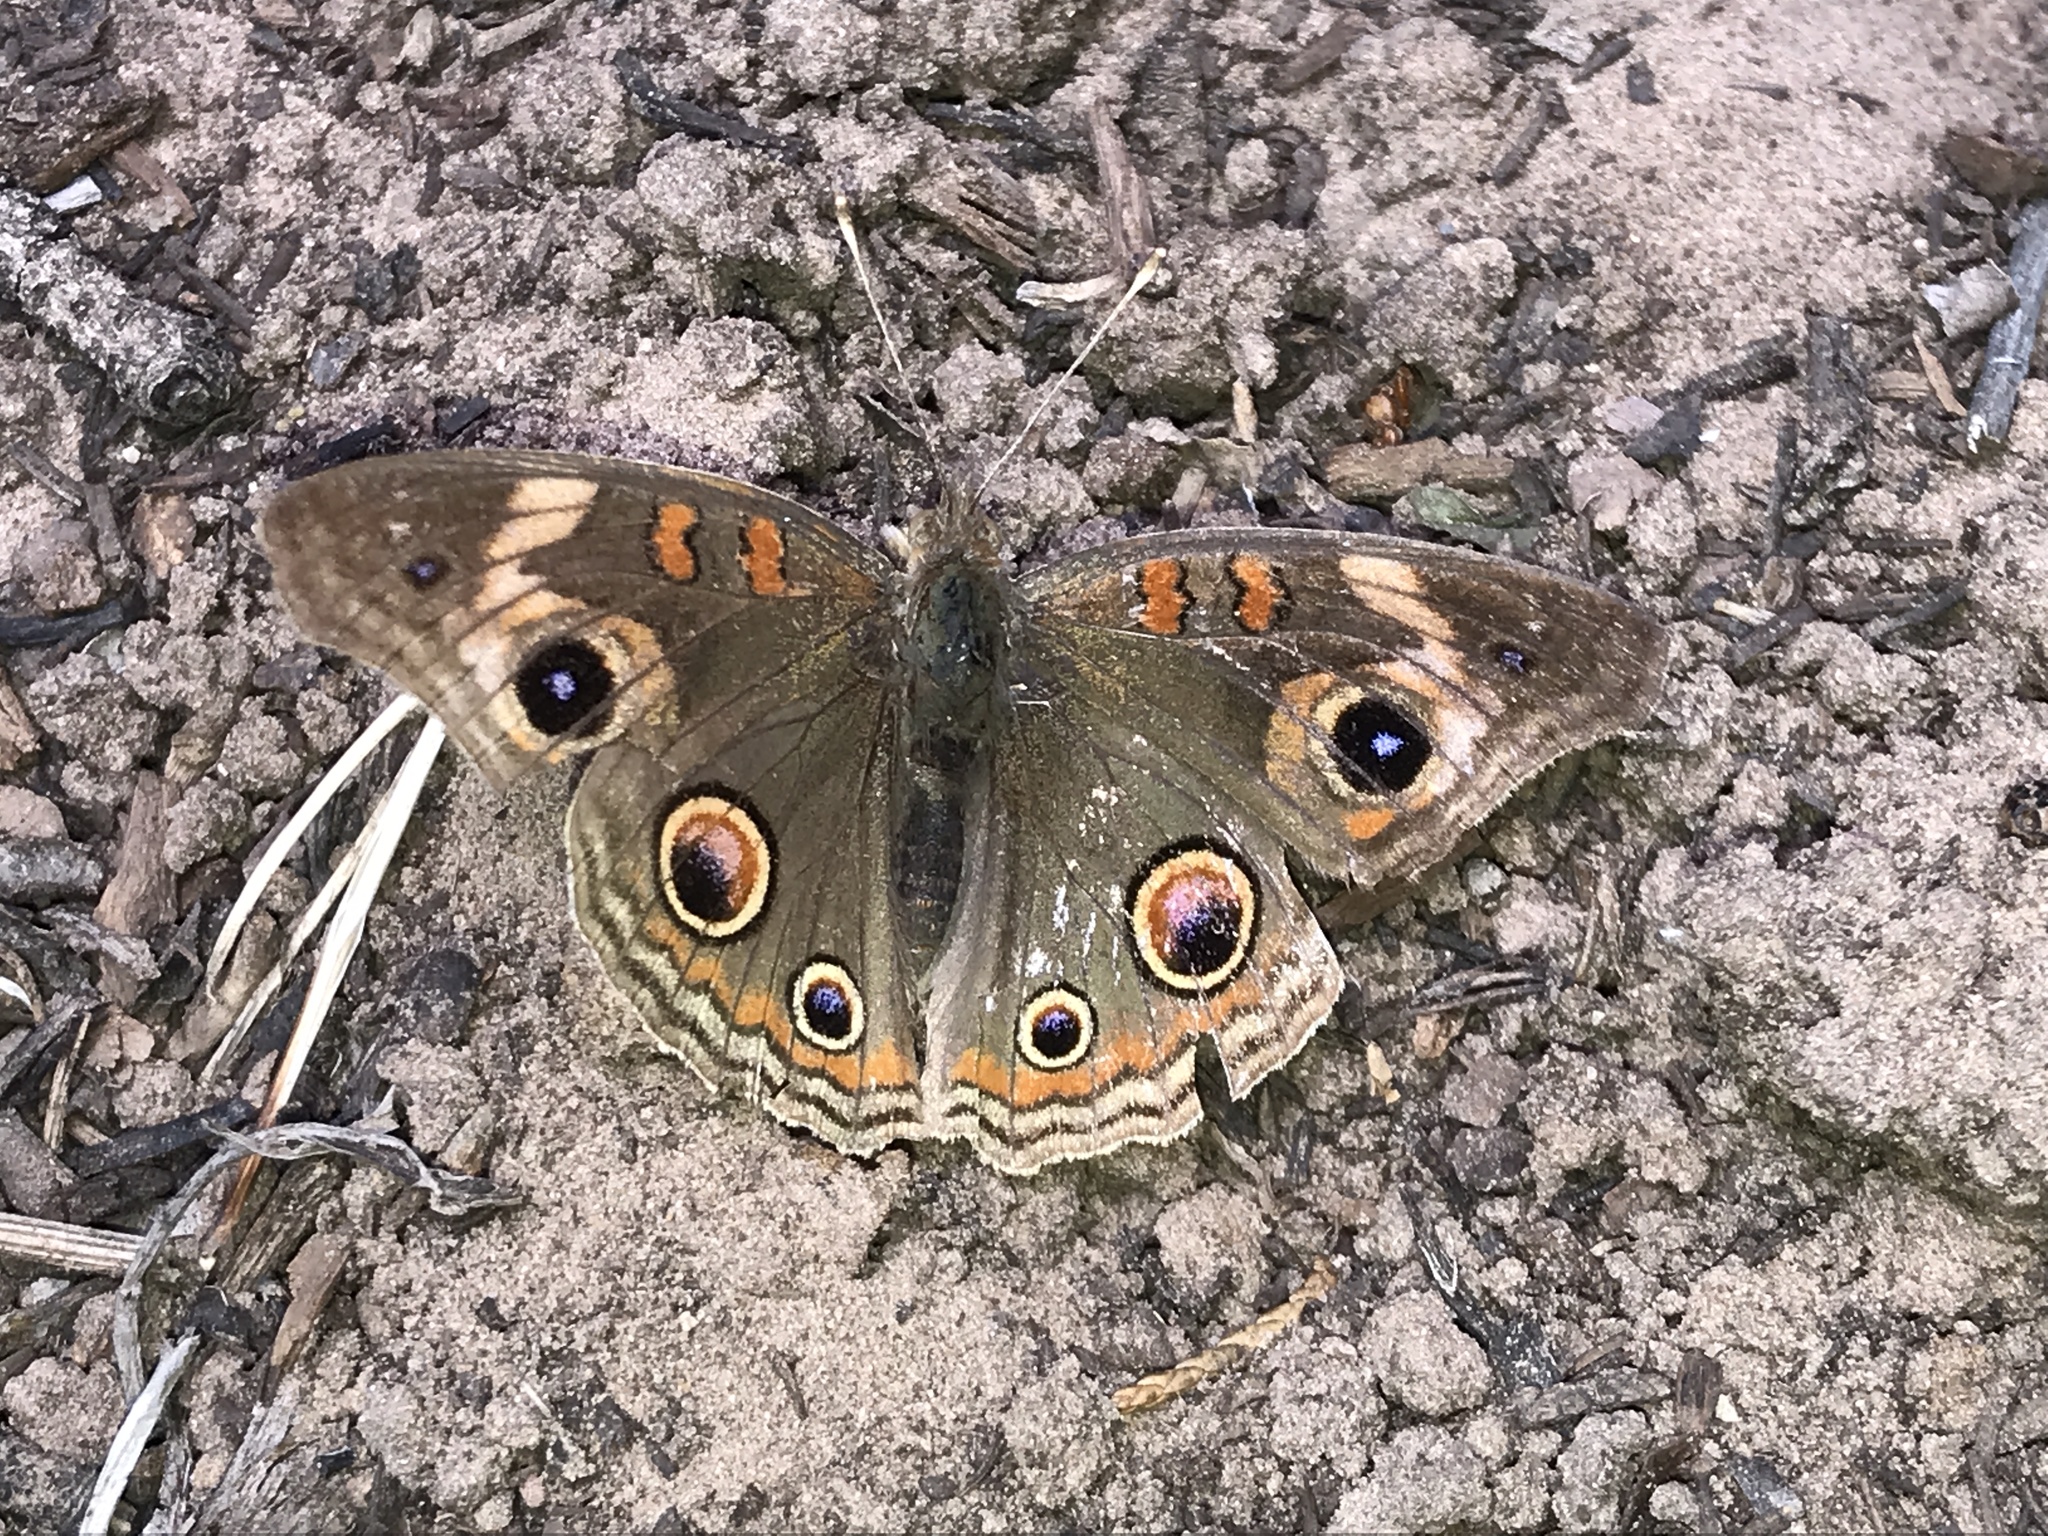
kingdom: Animalia
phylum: Arthropoda
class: Insecta
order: Lepidoptera
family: Nymphalidae
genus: Junonia
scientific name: Junonia grisea
